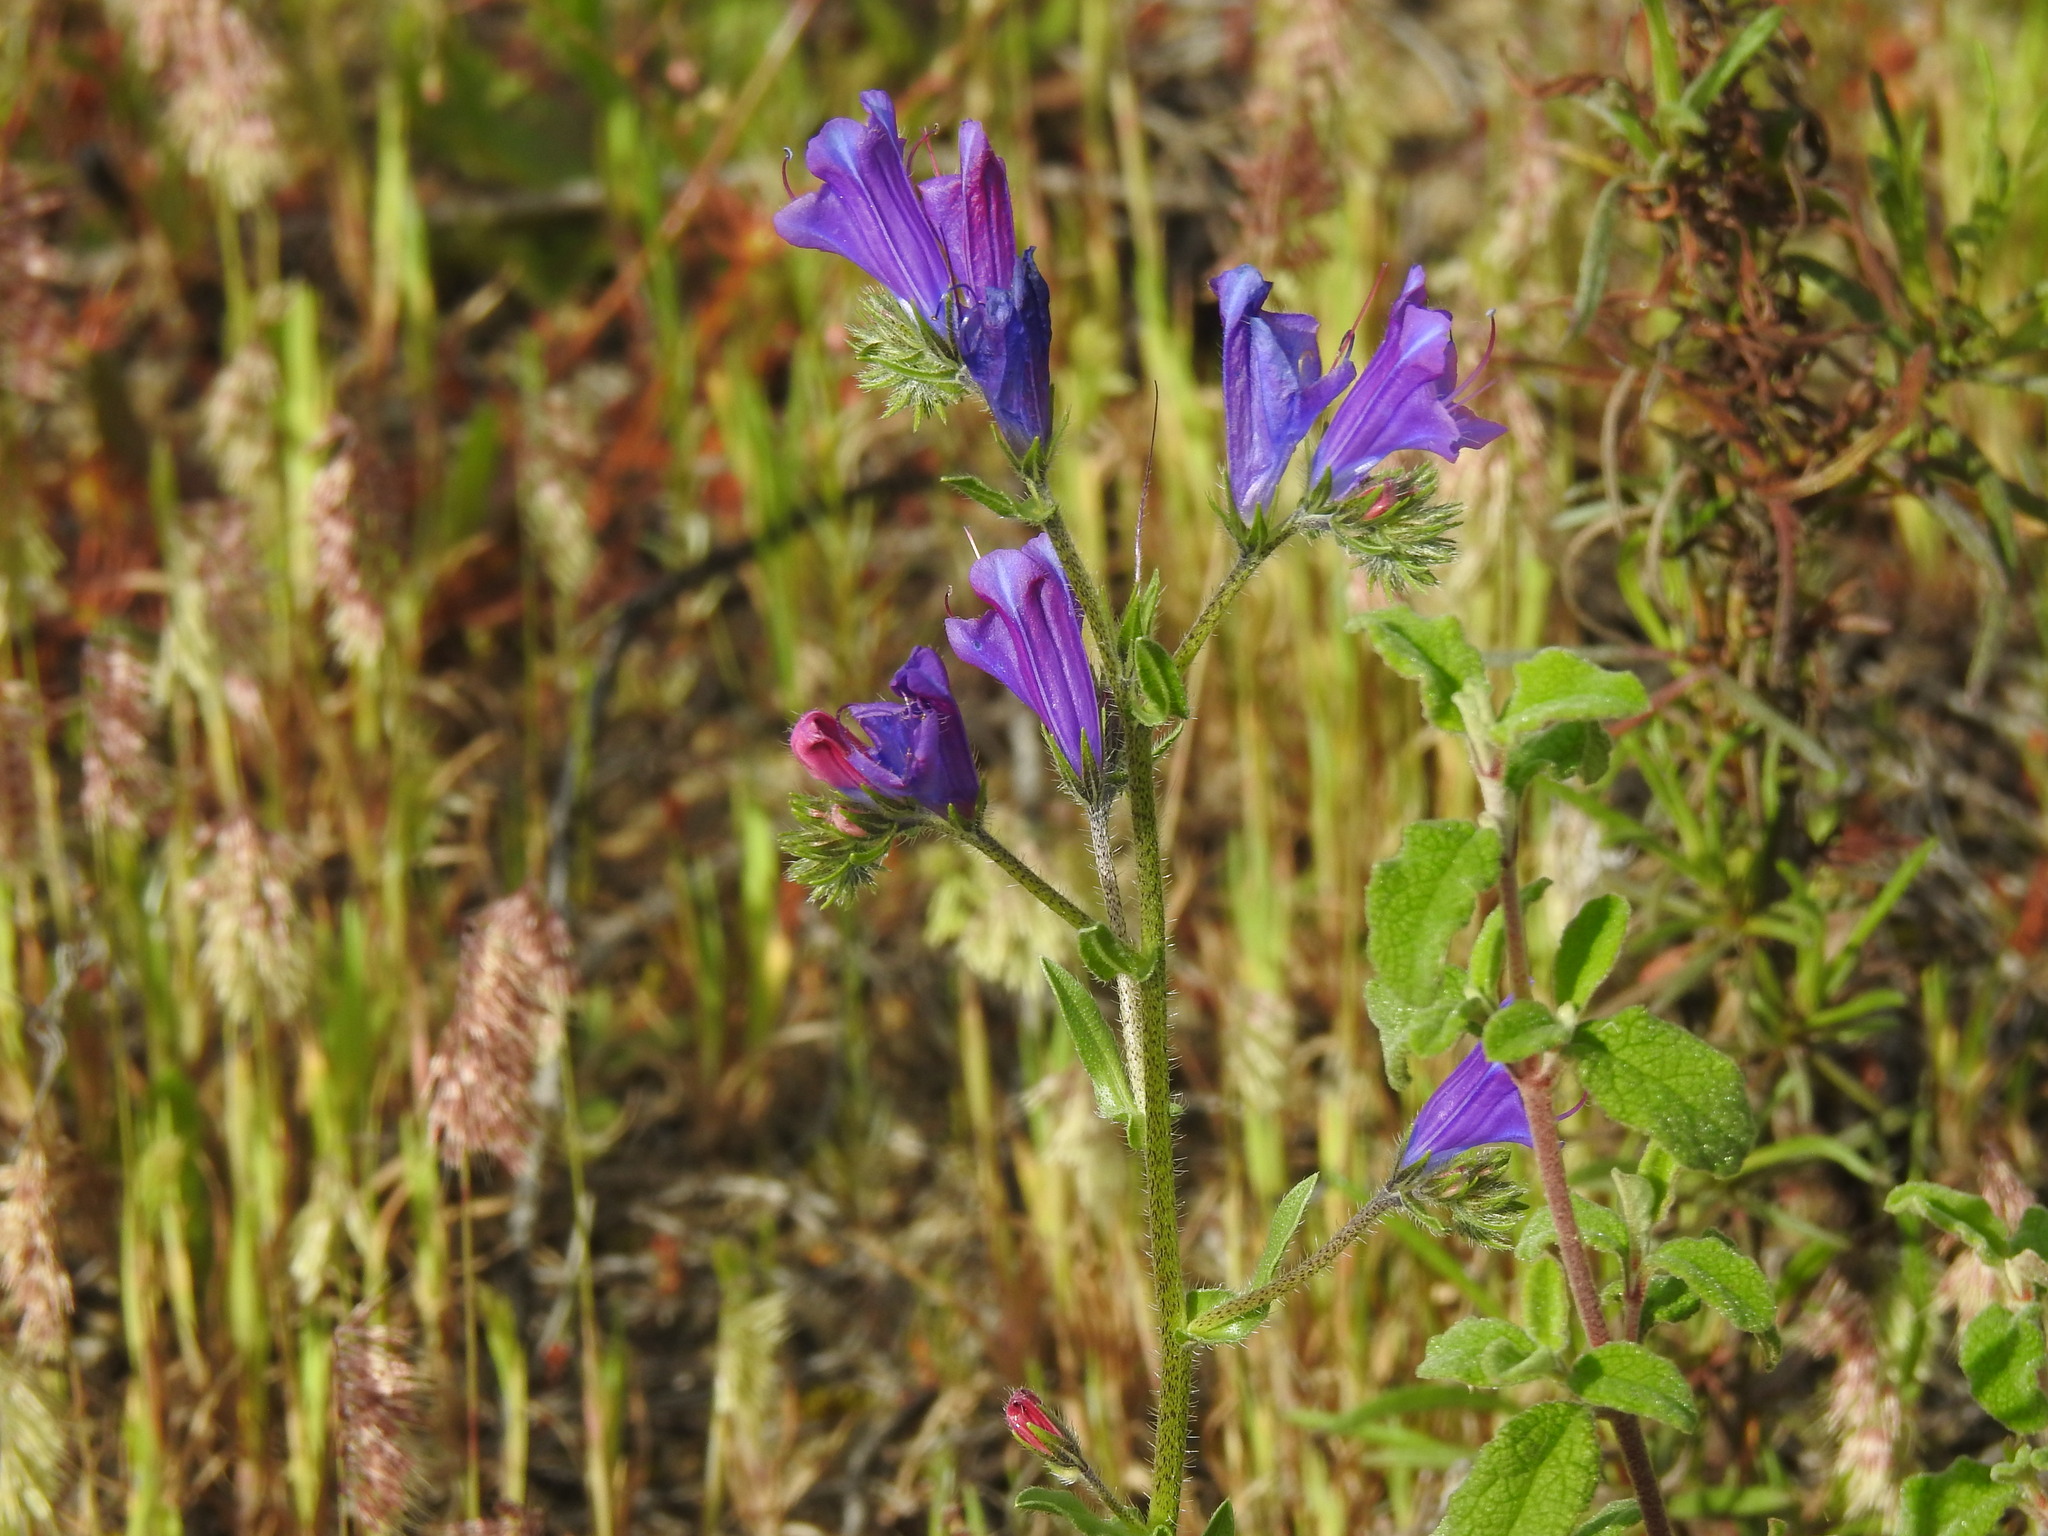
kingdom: Plantae
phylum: Tracheophyta
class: Magnoliopsida
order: Boraginales
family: Boraginaceae
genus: Echium
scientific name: Echium plantagineum
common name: Purple viper's-bugloss
